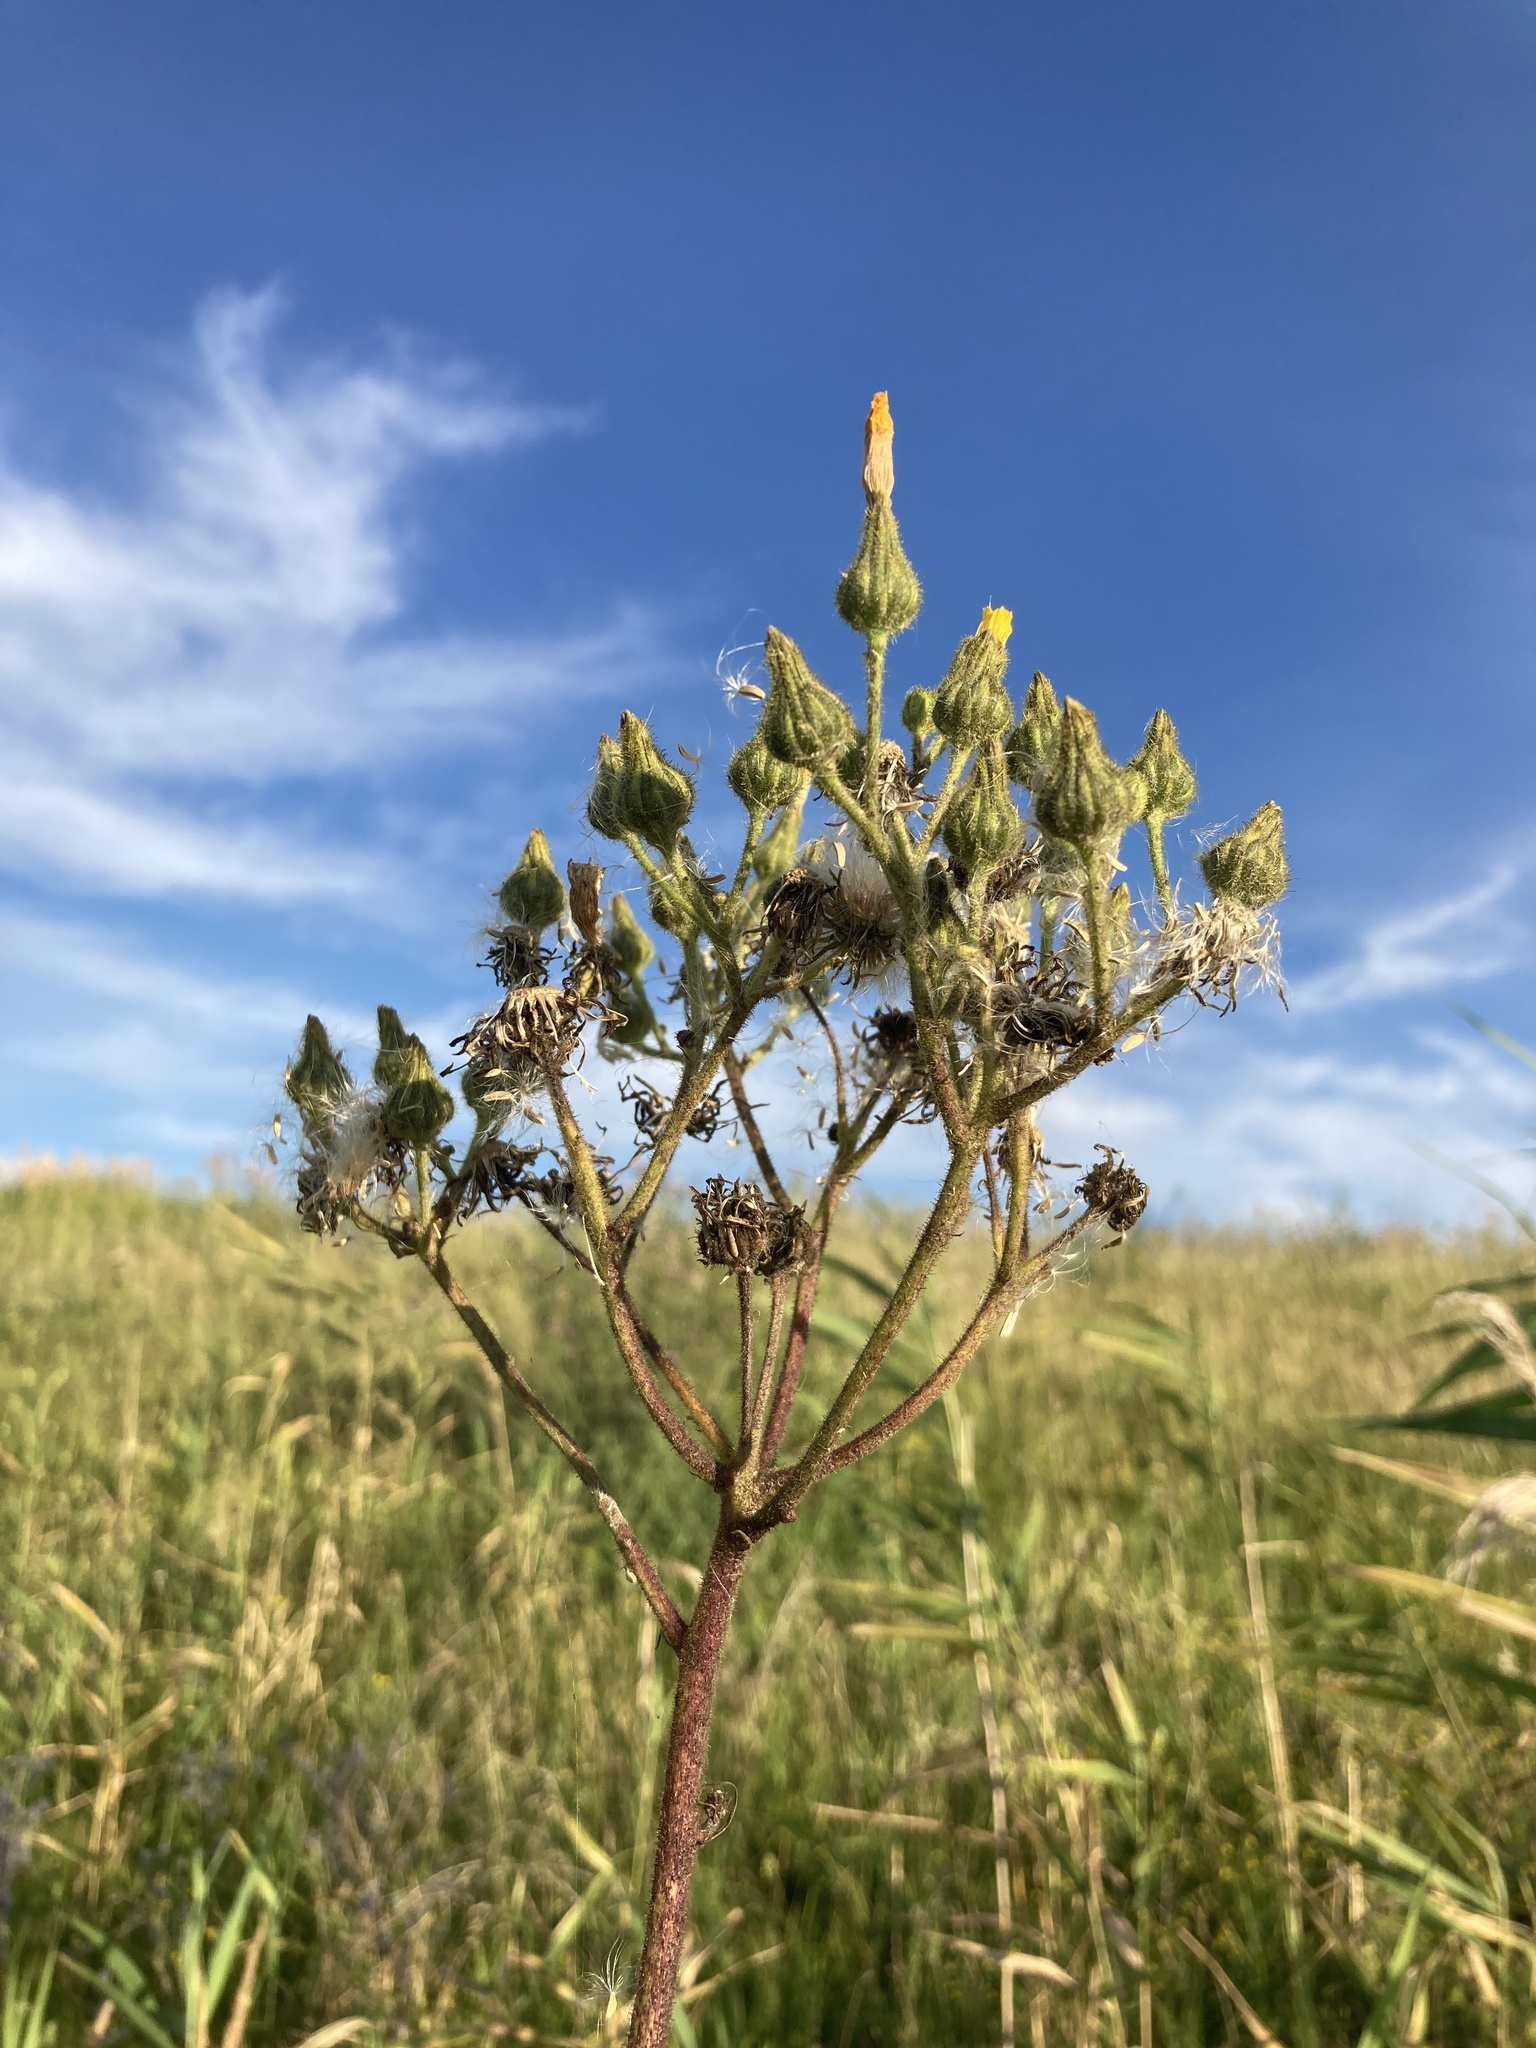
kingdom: Plantae
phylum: Tracheophyta
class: Magnoliopsida
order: Asterales
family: Asteraceae
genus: Sonchus
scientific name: Sonchus palustris
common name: Marsh sow-thistle
